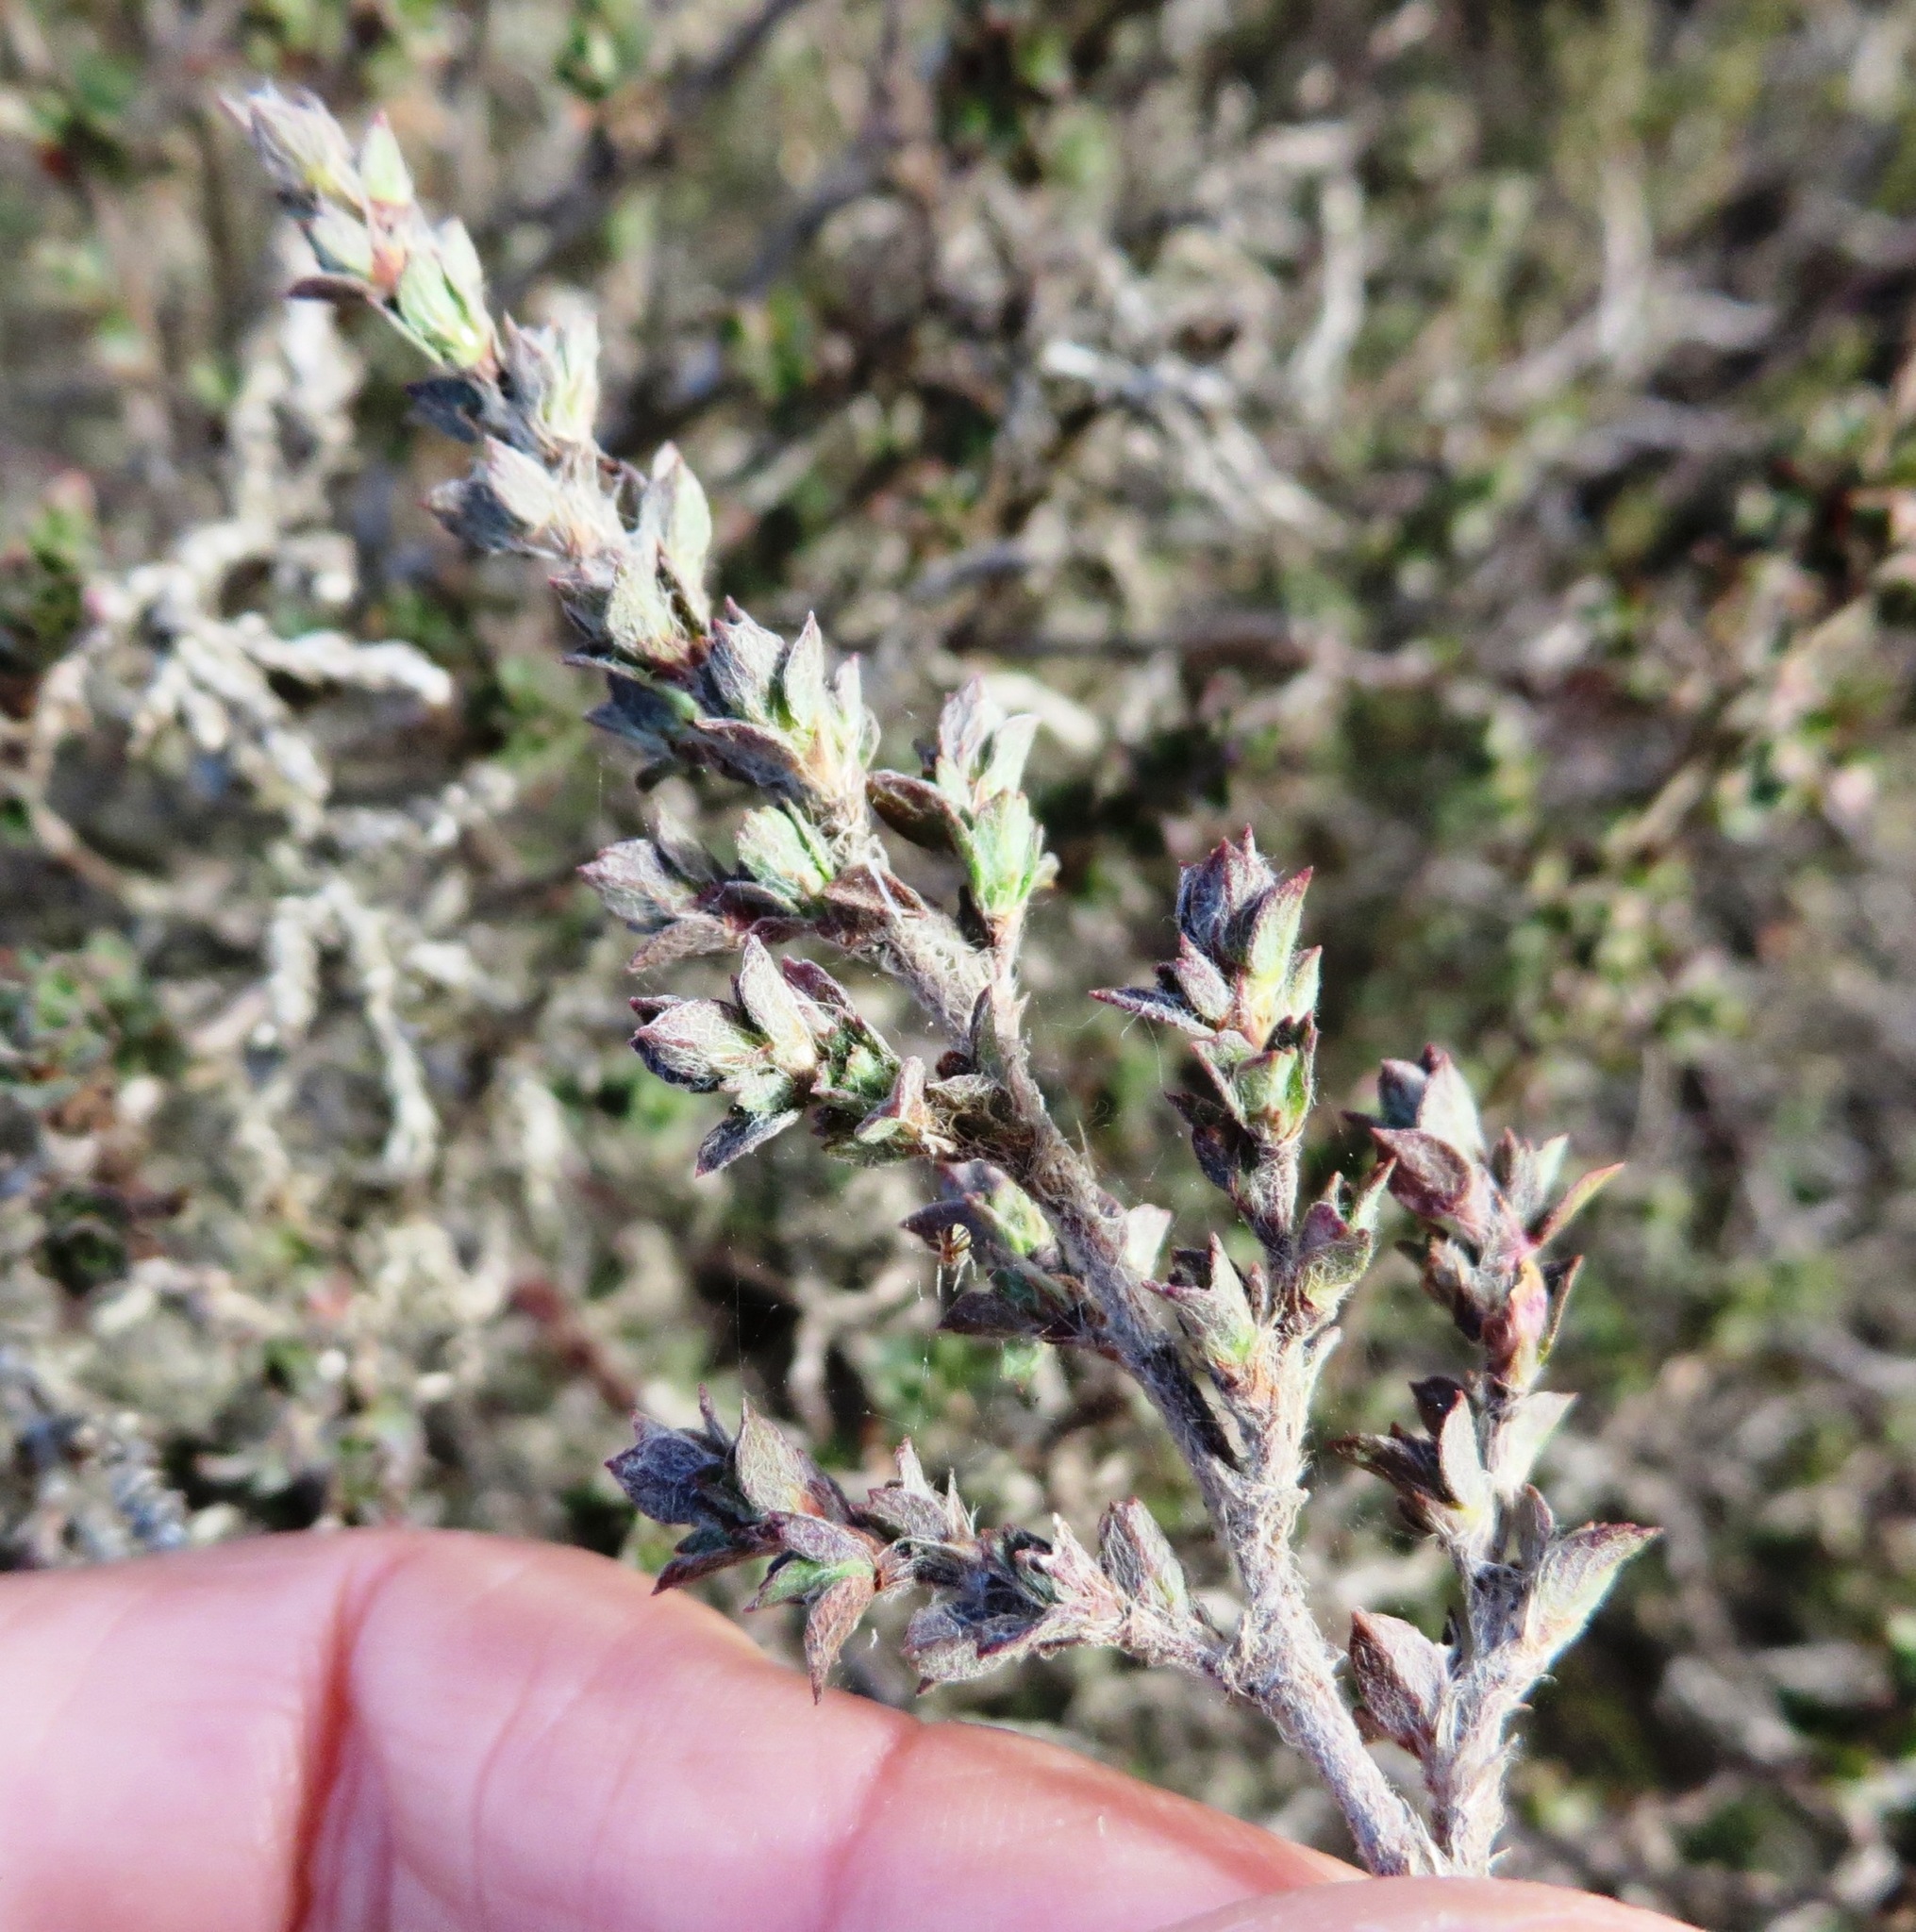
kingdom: Plantae
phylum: Tracheophyta
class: Magnoliopsida
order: Rosales
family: Rosaceae
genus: Cliffortia
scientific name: Cliffortia monophylla
